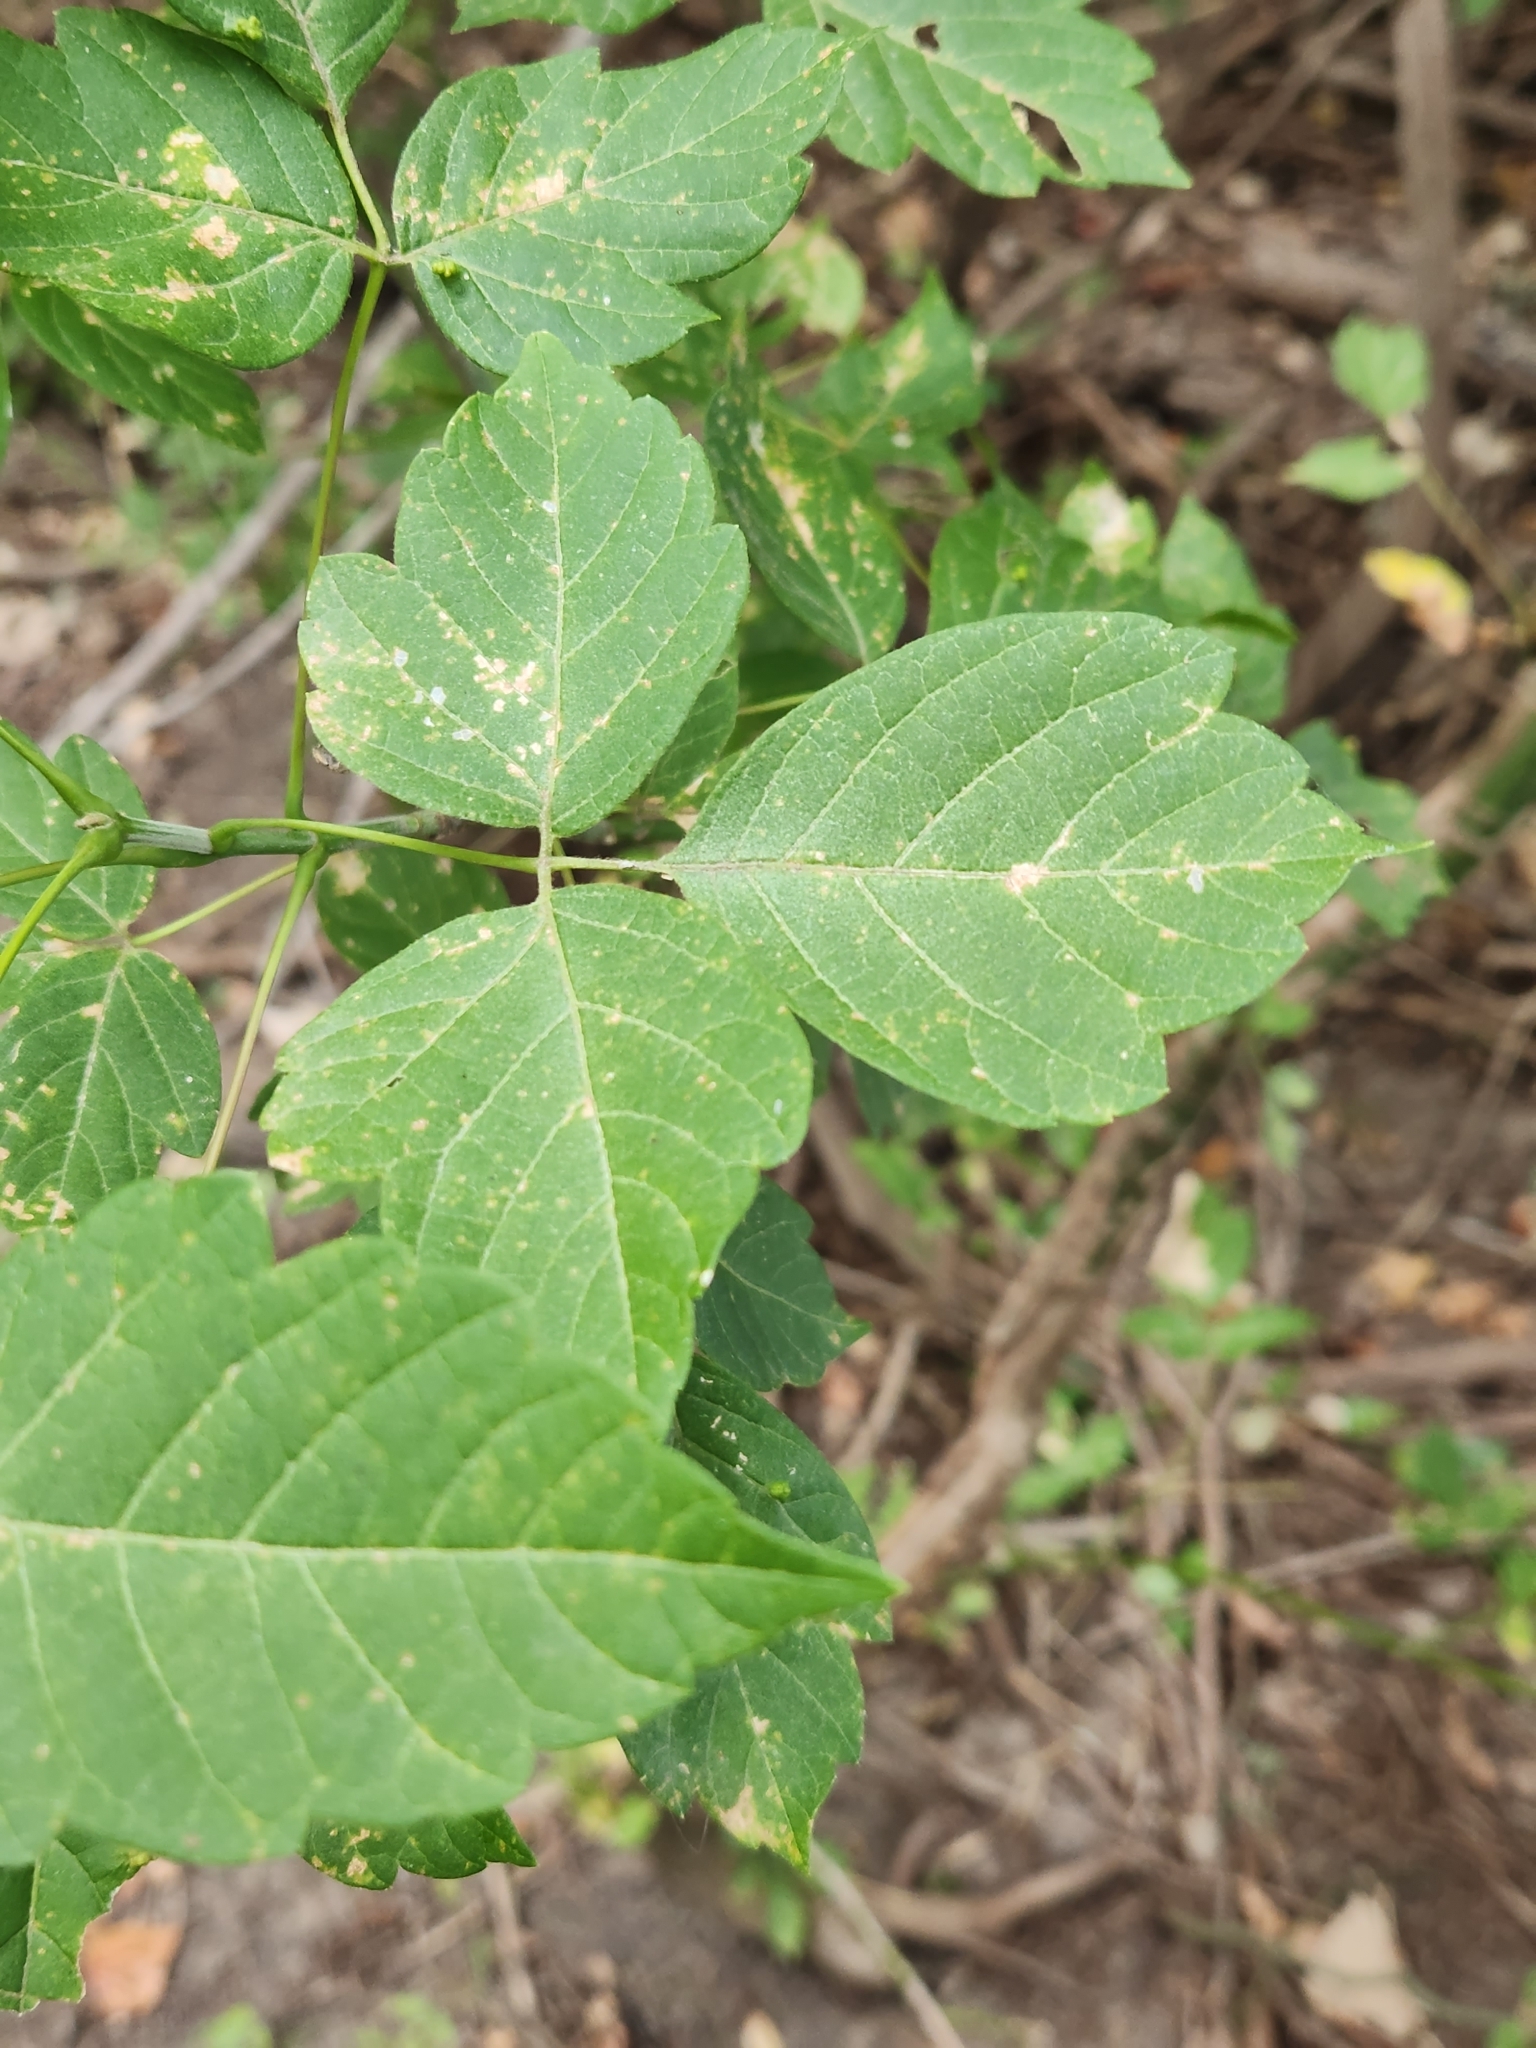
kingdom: Plantae
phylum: Tracheophyta
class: Magnoliopsida
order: Sapindales
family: Sapindaceae
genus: Acer
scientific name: Acer negundo
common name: Ashleaf maple
